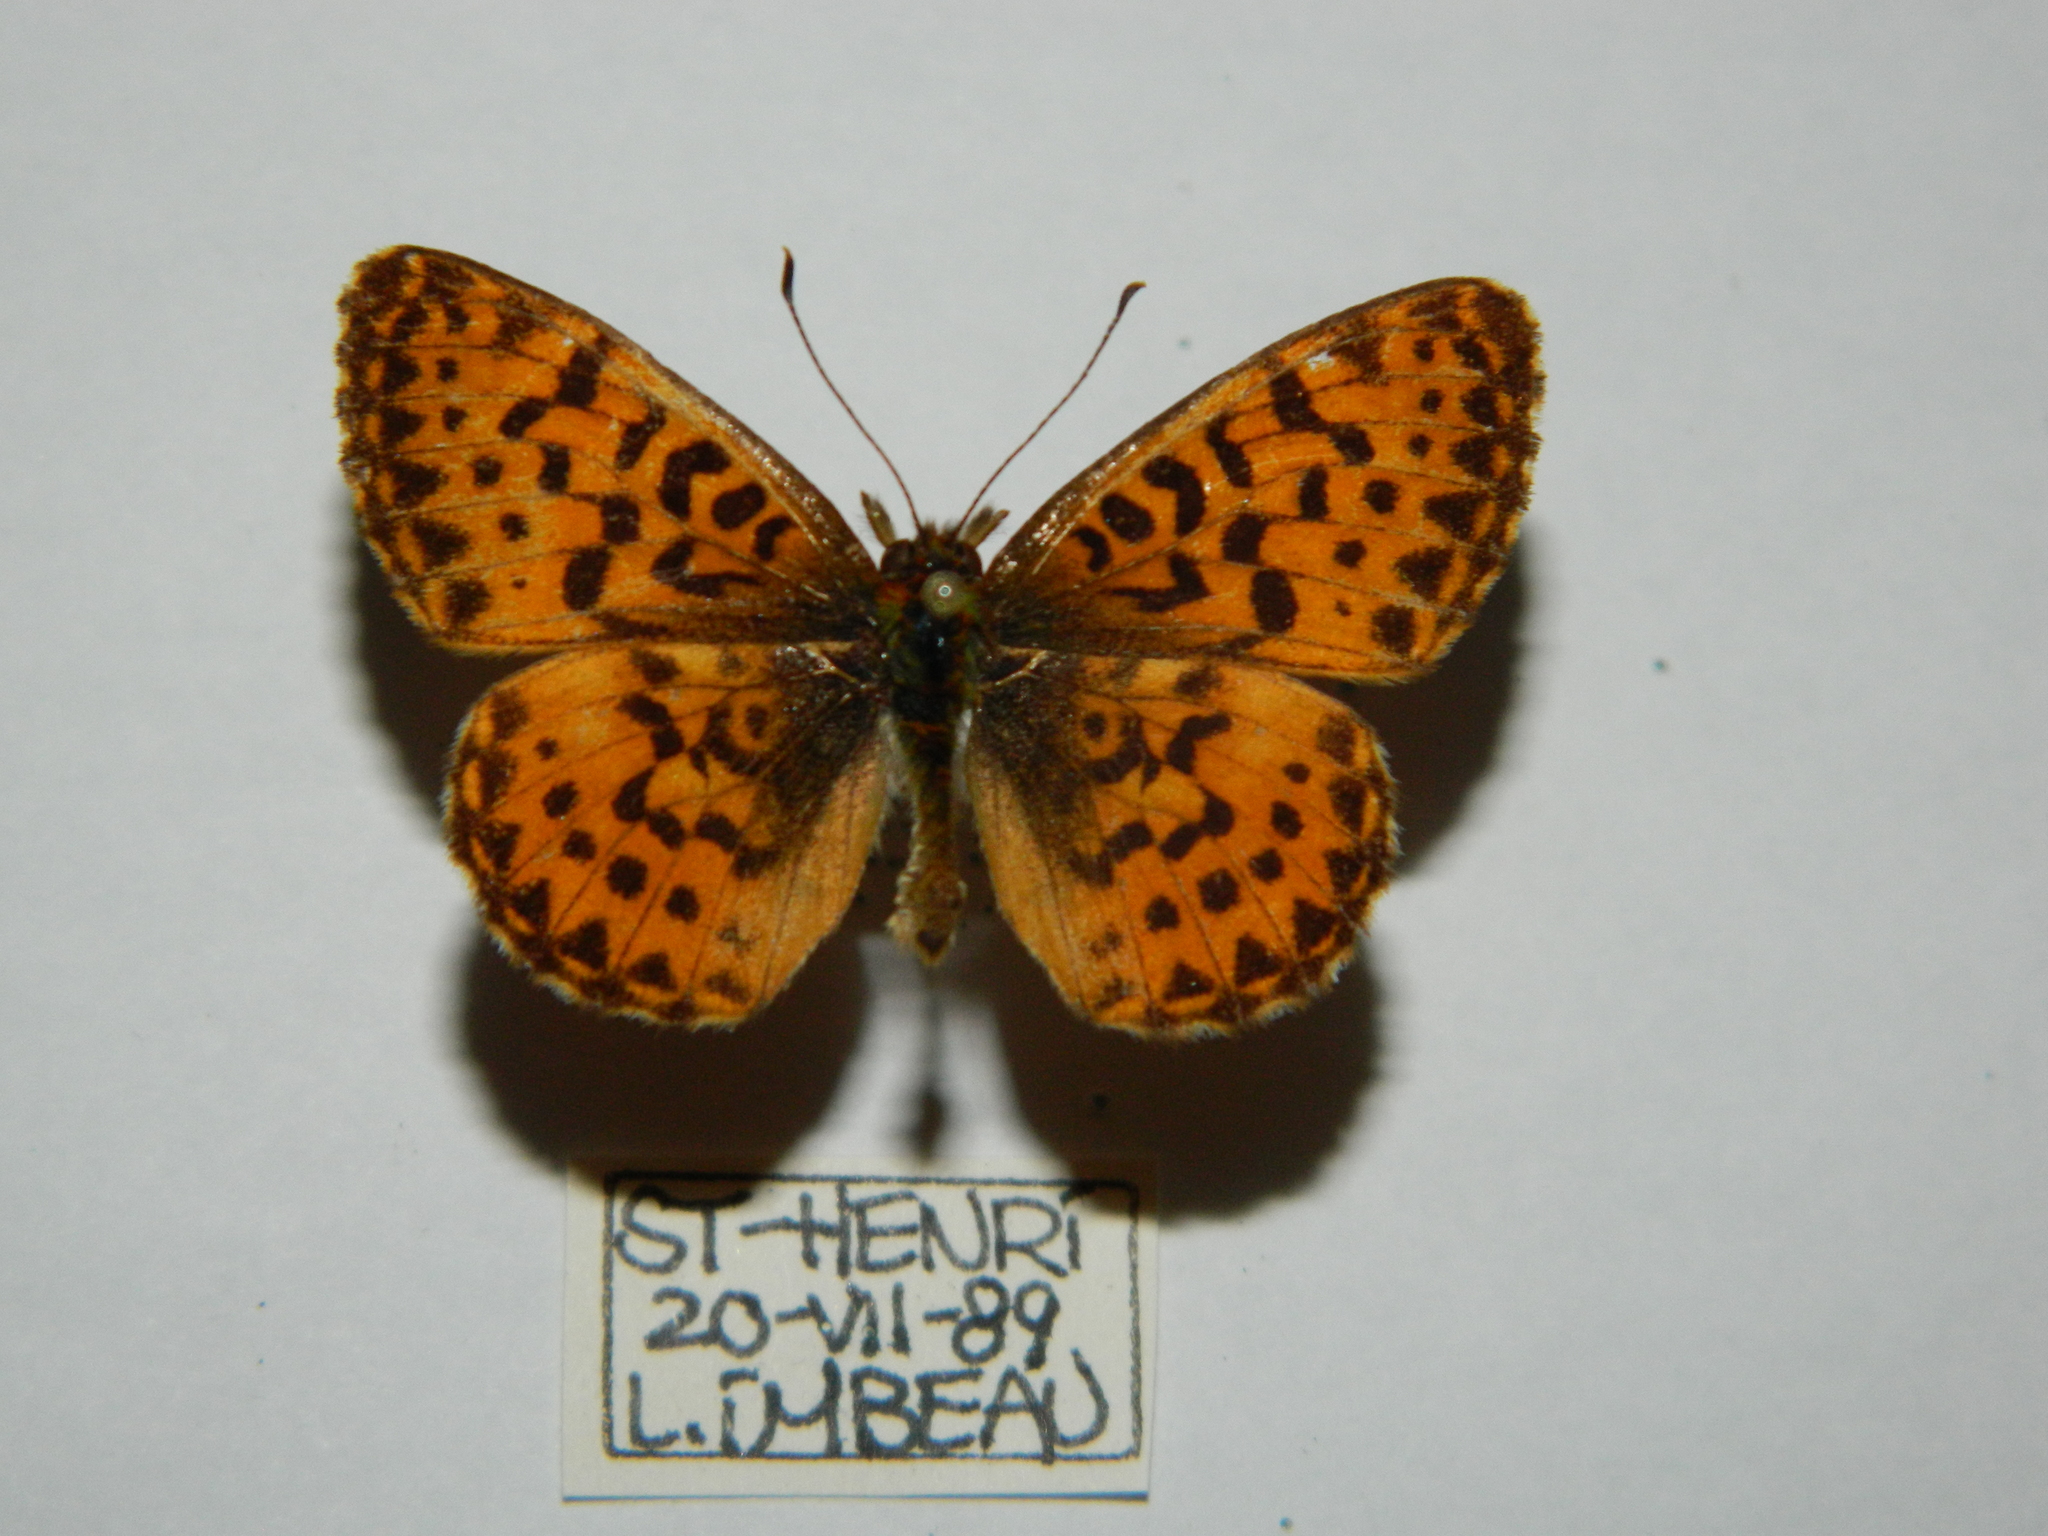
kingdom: Animalia
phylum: Arthropoda
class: Insecta
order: Lepidoptera
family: Nymphalidae
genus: Clossiana
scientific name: Clossiana chariclea
